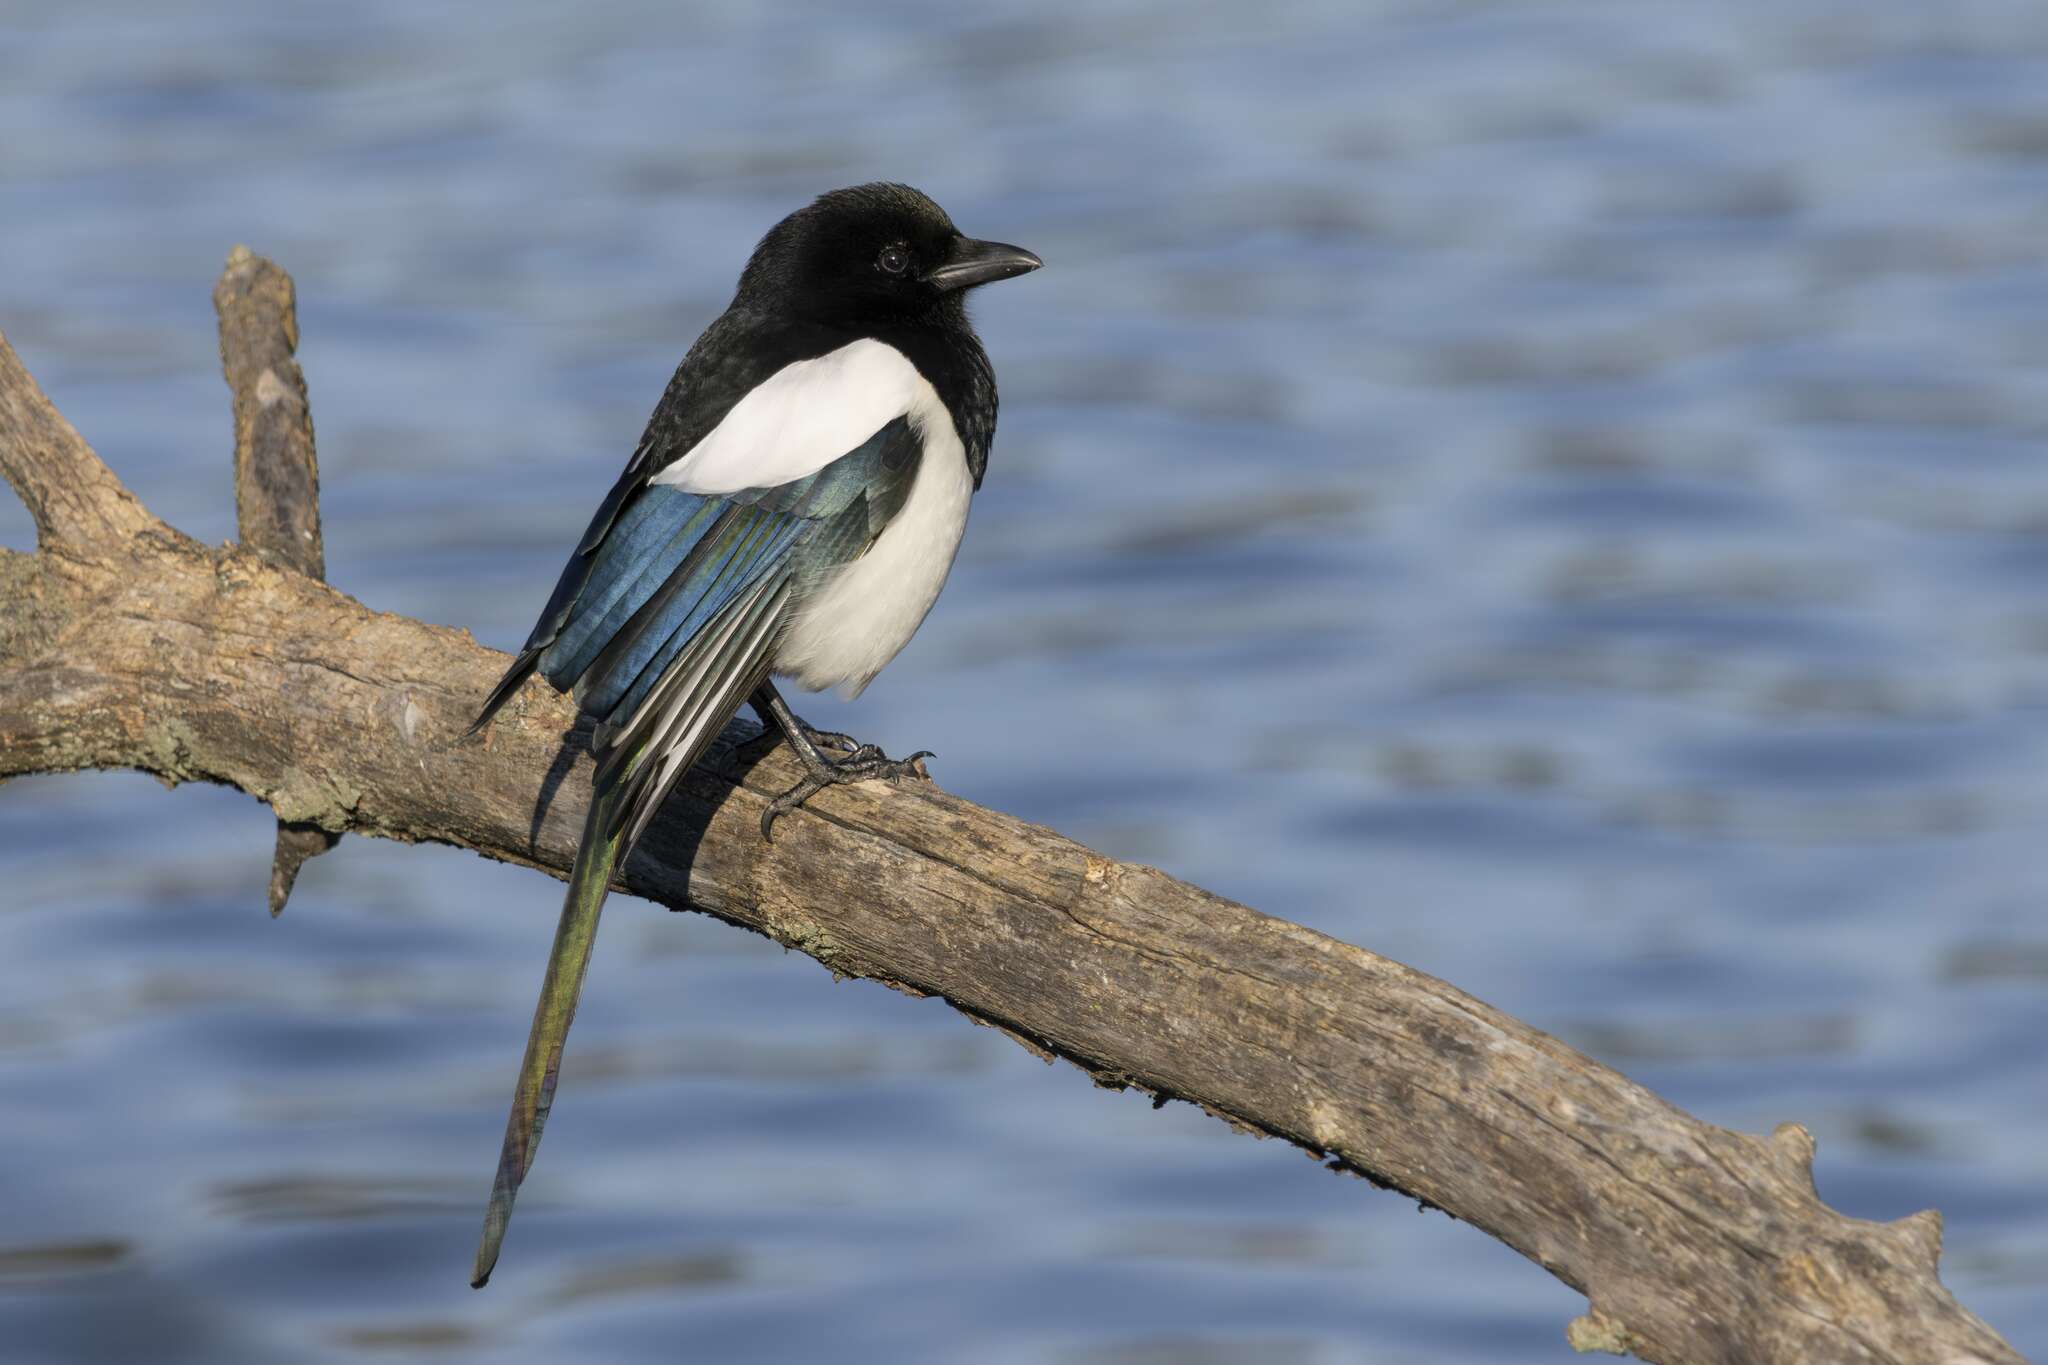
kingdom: Animalia
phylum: Chordata
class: Aves
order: Passeriformes
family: Corvidae
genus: Pica
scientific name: Pica pica
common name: Eurasian magpie
